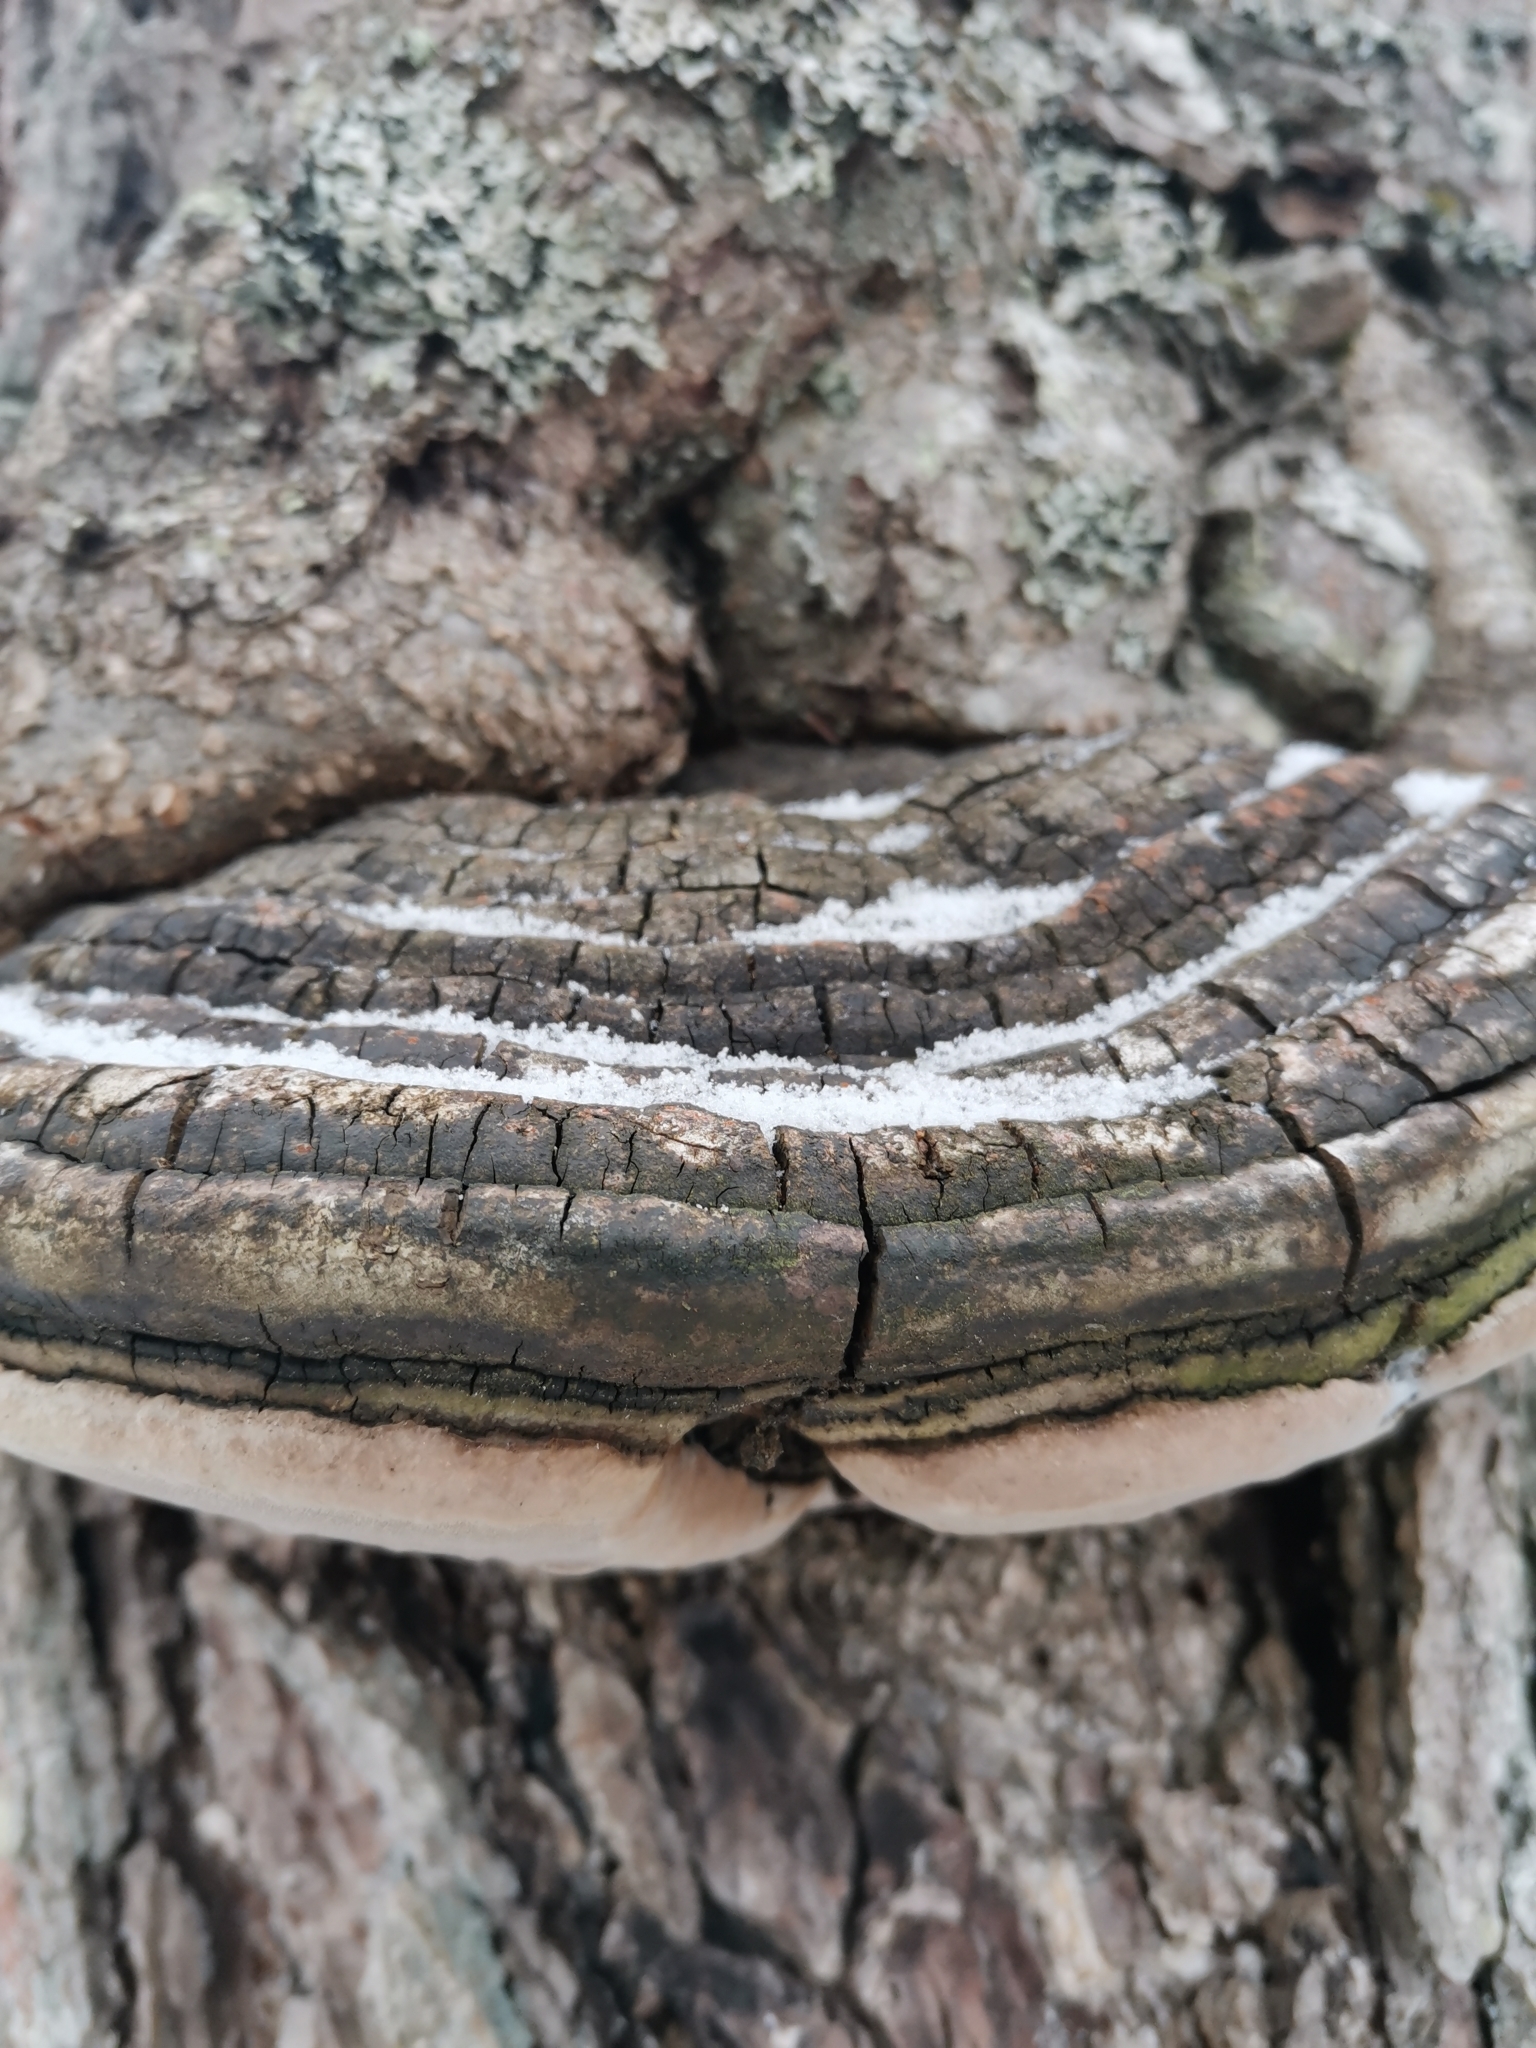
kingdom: Fungi
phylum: Basidiomycota
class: Agaricomycetes
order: Hymenochaetales
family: Hymenochaetaceae
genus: Phellinus
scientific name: Phellinus igniarius
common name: Willow bracket
